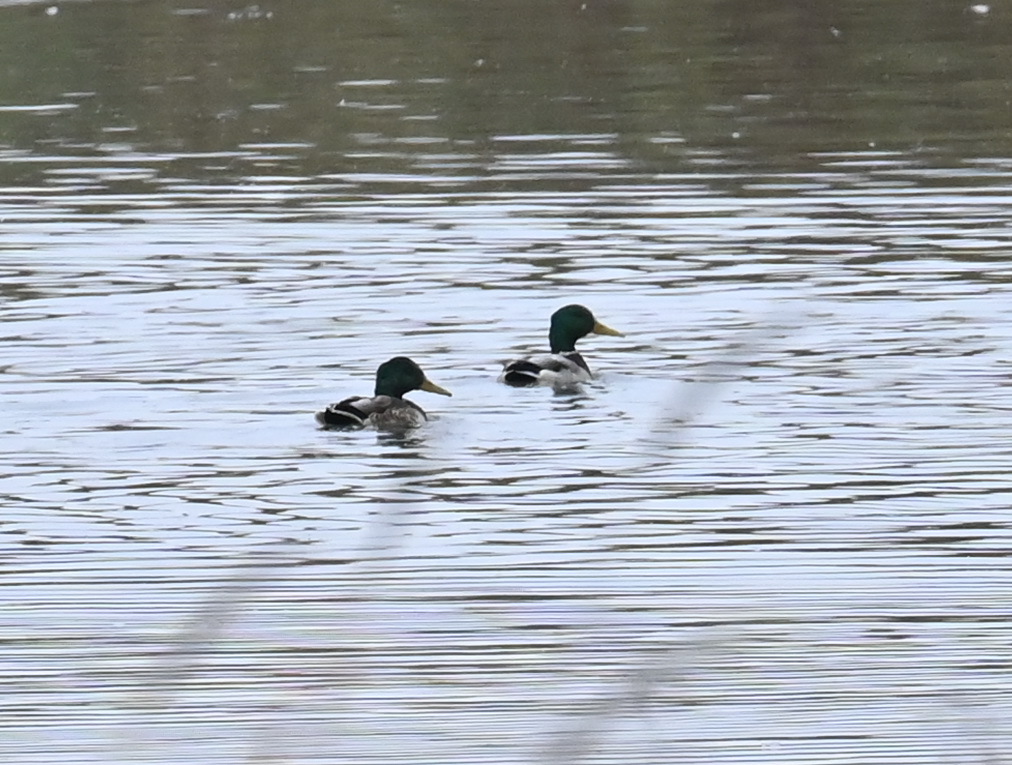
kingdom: Animalia
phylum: Chordata
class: Aves
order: Anseriformes
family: Anatidae
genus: Anas
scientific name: Anas platyrhynchos
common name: Mallard
